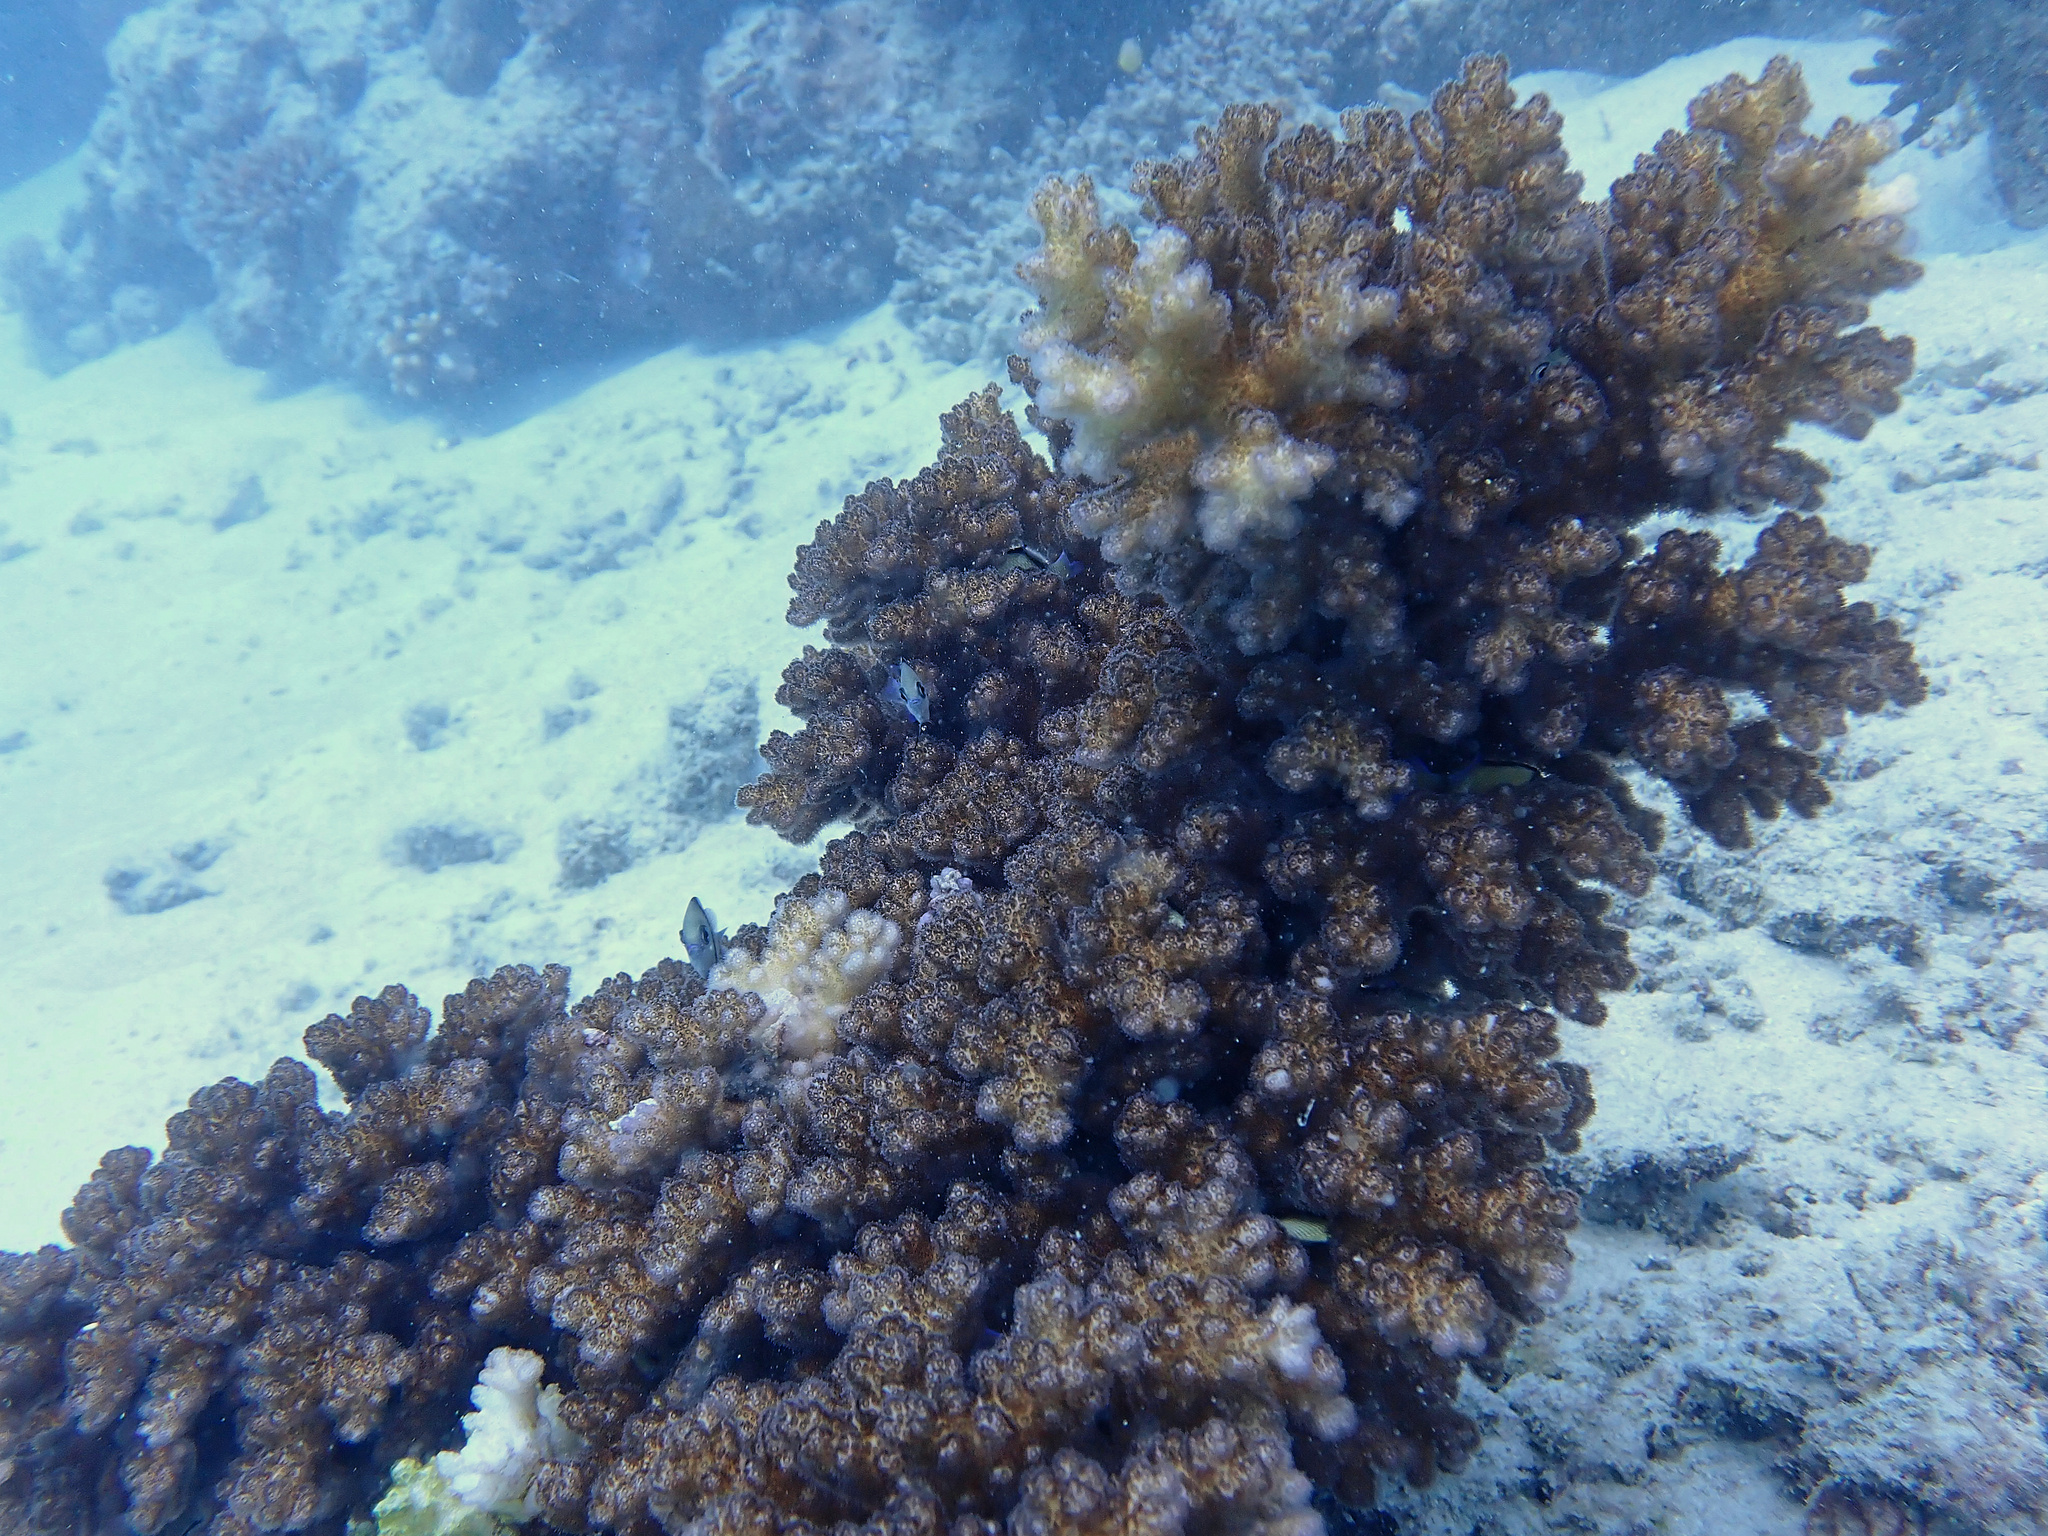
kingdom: Animalia
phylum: Cnidaria
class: Anthozoa
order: Scleractinia
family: Pocilloporidae
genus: Pocillopora
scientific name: Pocillopora damicornis
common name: Cauliflower coral
